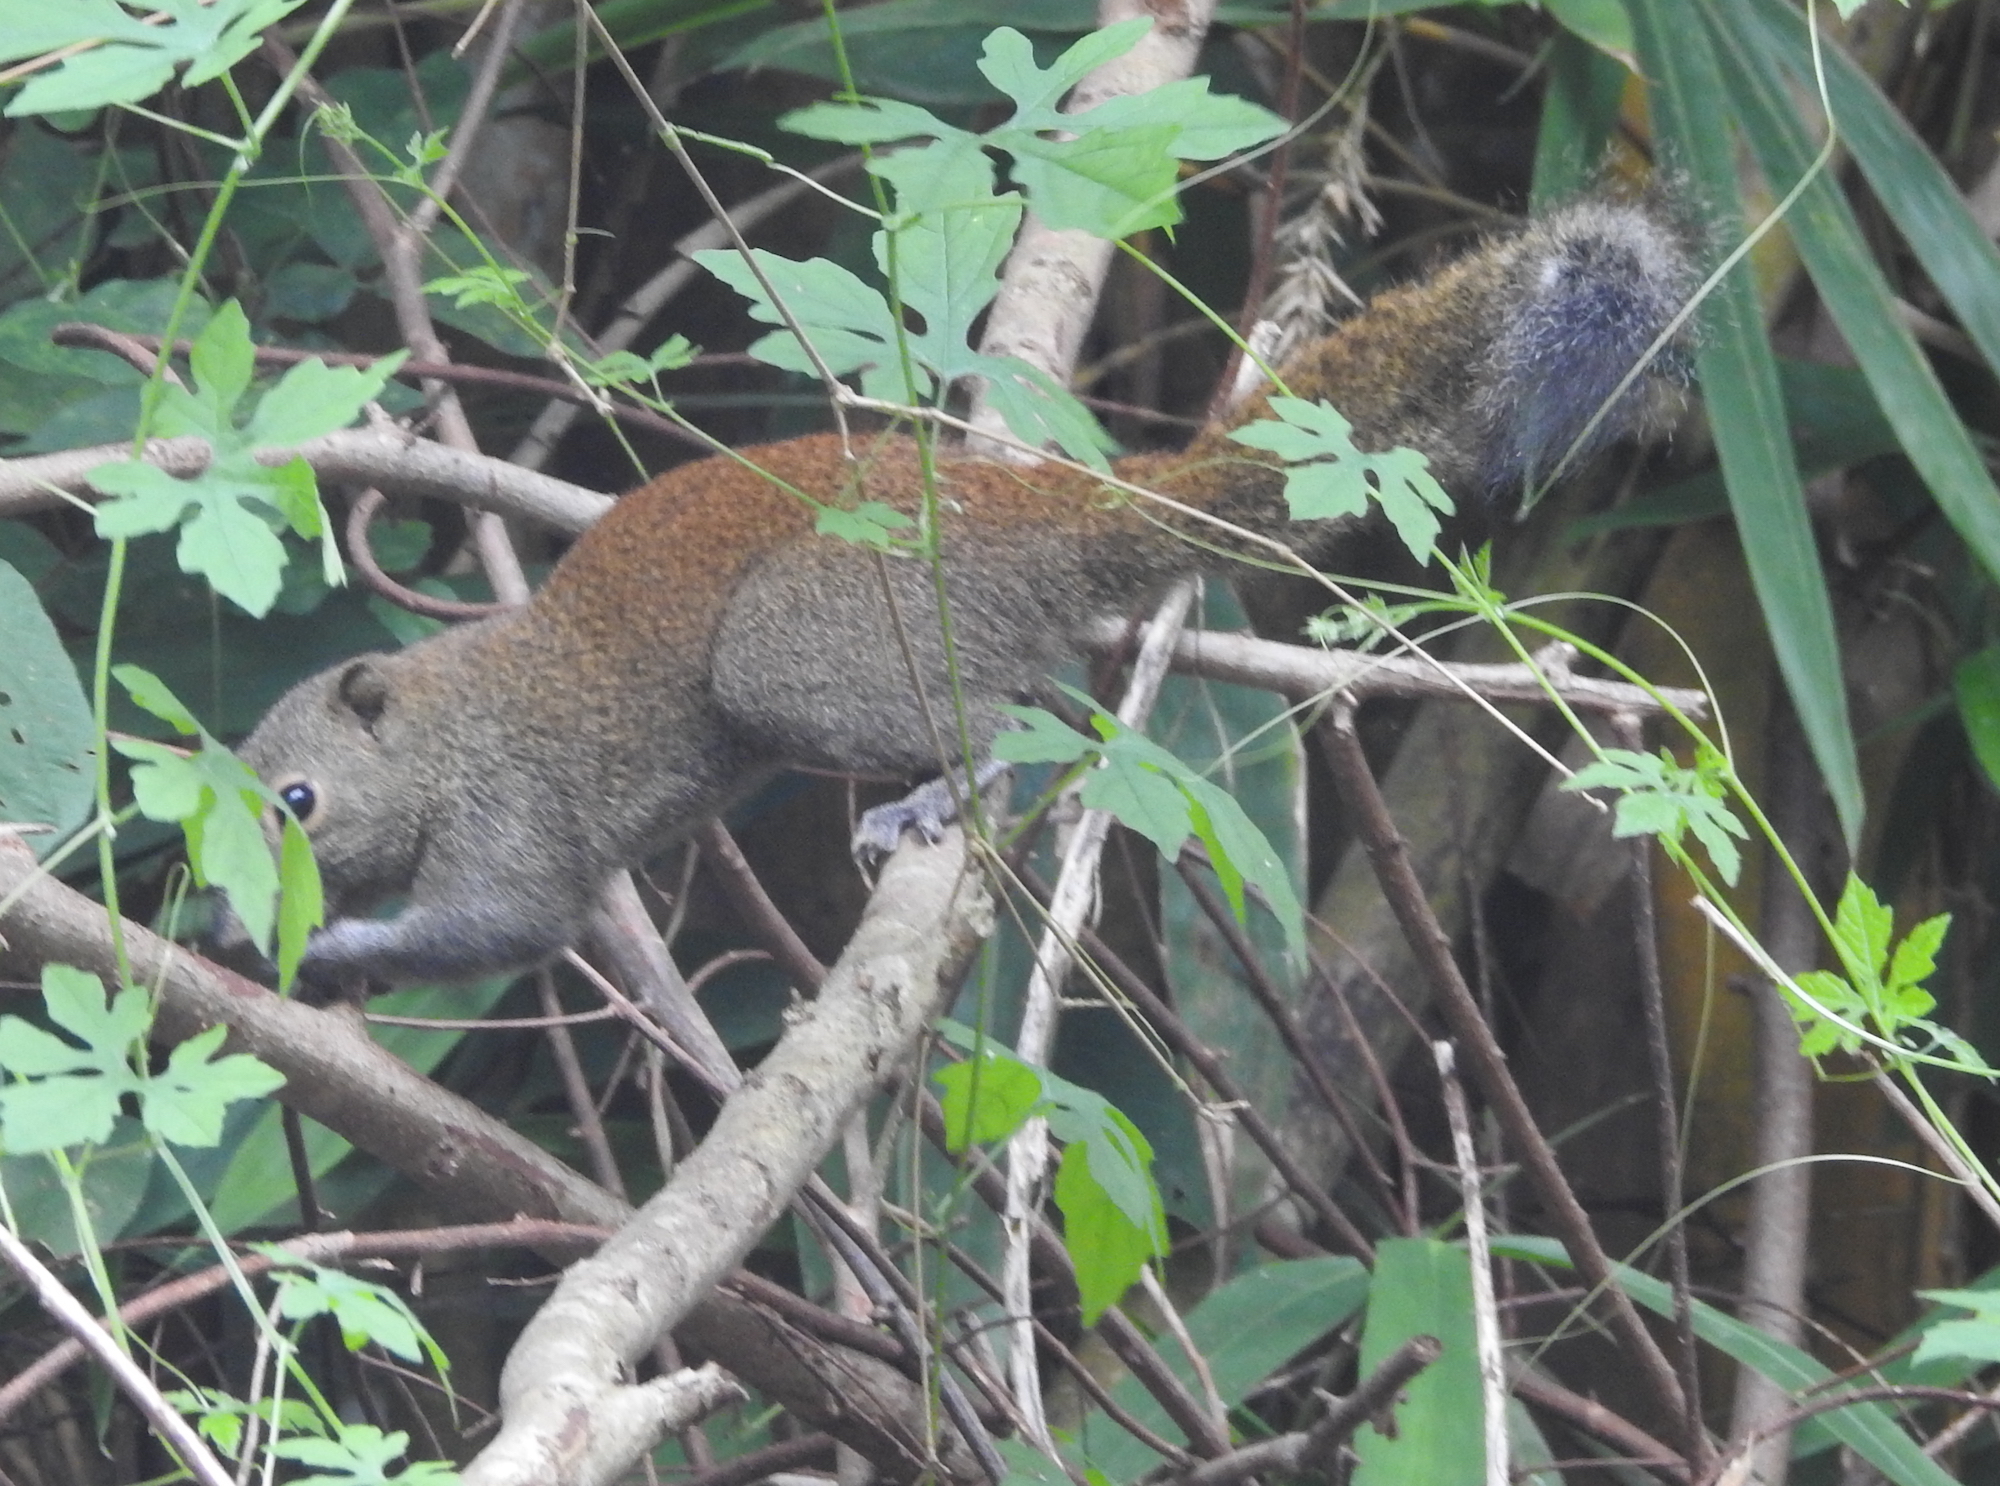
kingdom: Animalia
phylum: Chordata
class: Mammalia
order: Rodentia
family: Sciuridae
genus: Callosciurus
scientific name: Callosciurus caniceps
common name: Gray-bellied squirrel
